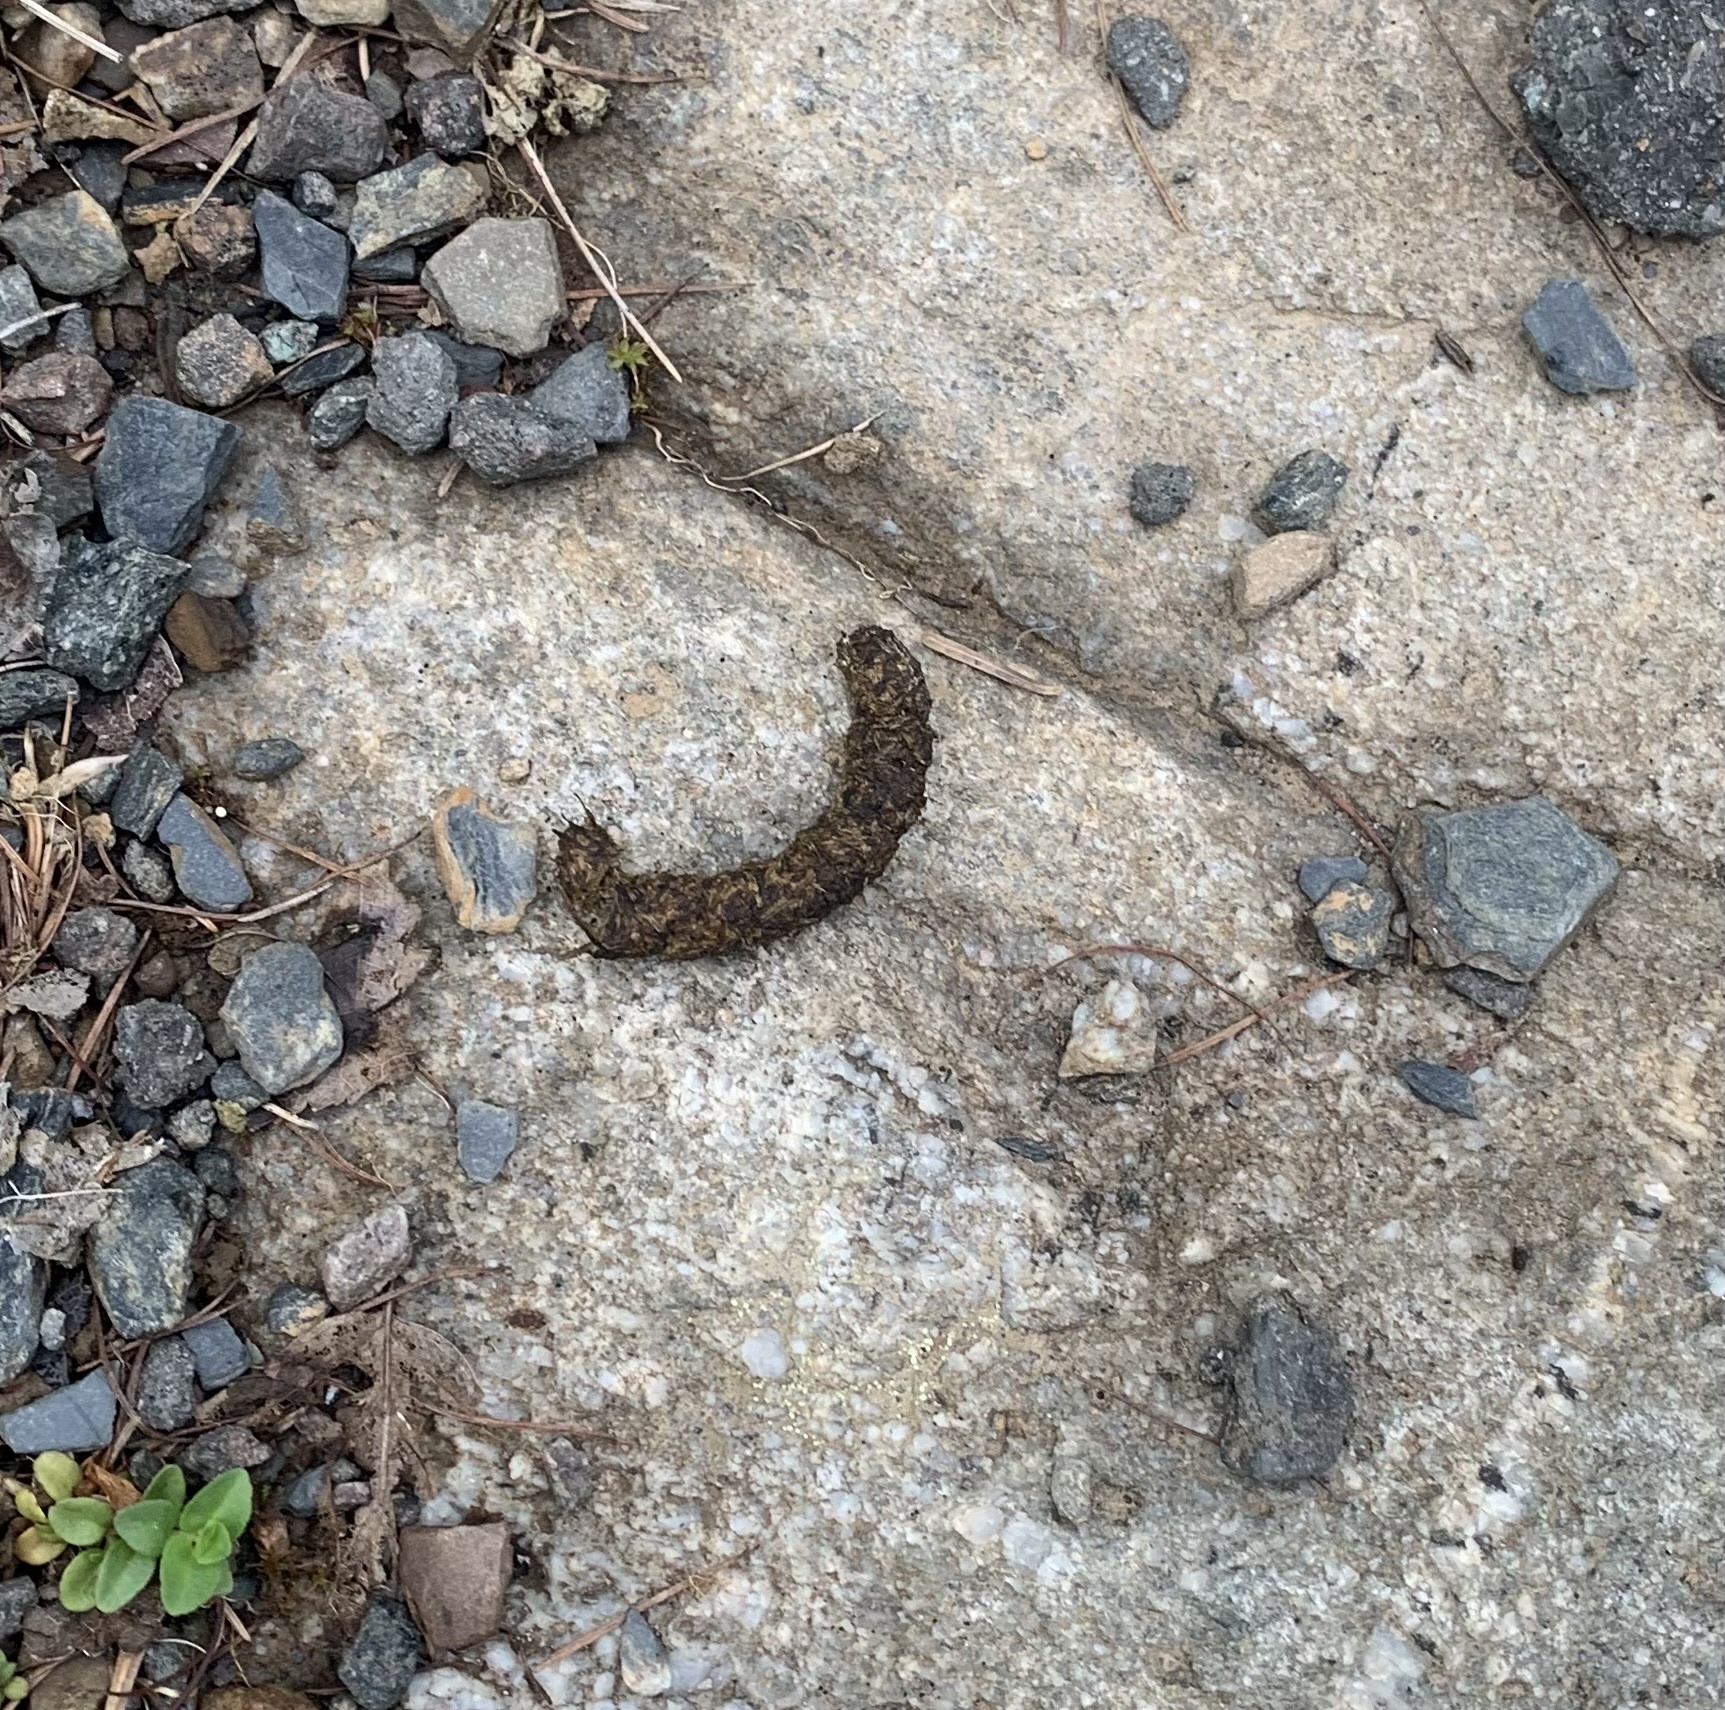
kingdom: Animalia
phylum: Chordata
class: Aves
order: Galliformes
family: Phasianidae
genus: Bonasa
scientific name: Bonasa umbellus
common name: Ruffed grouse
